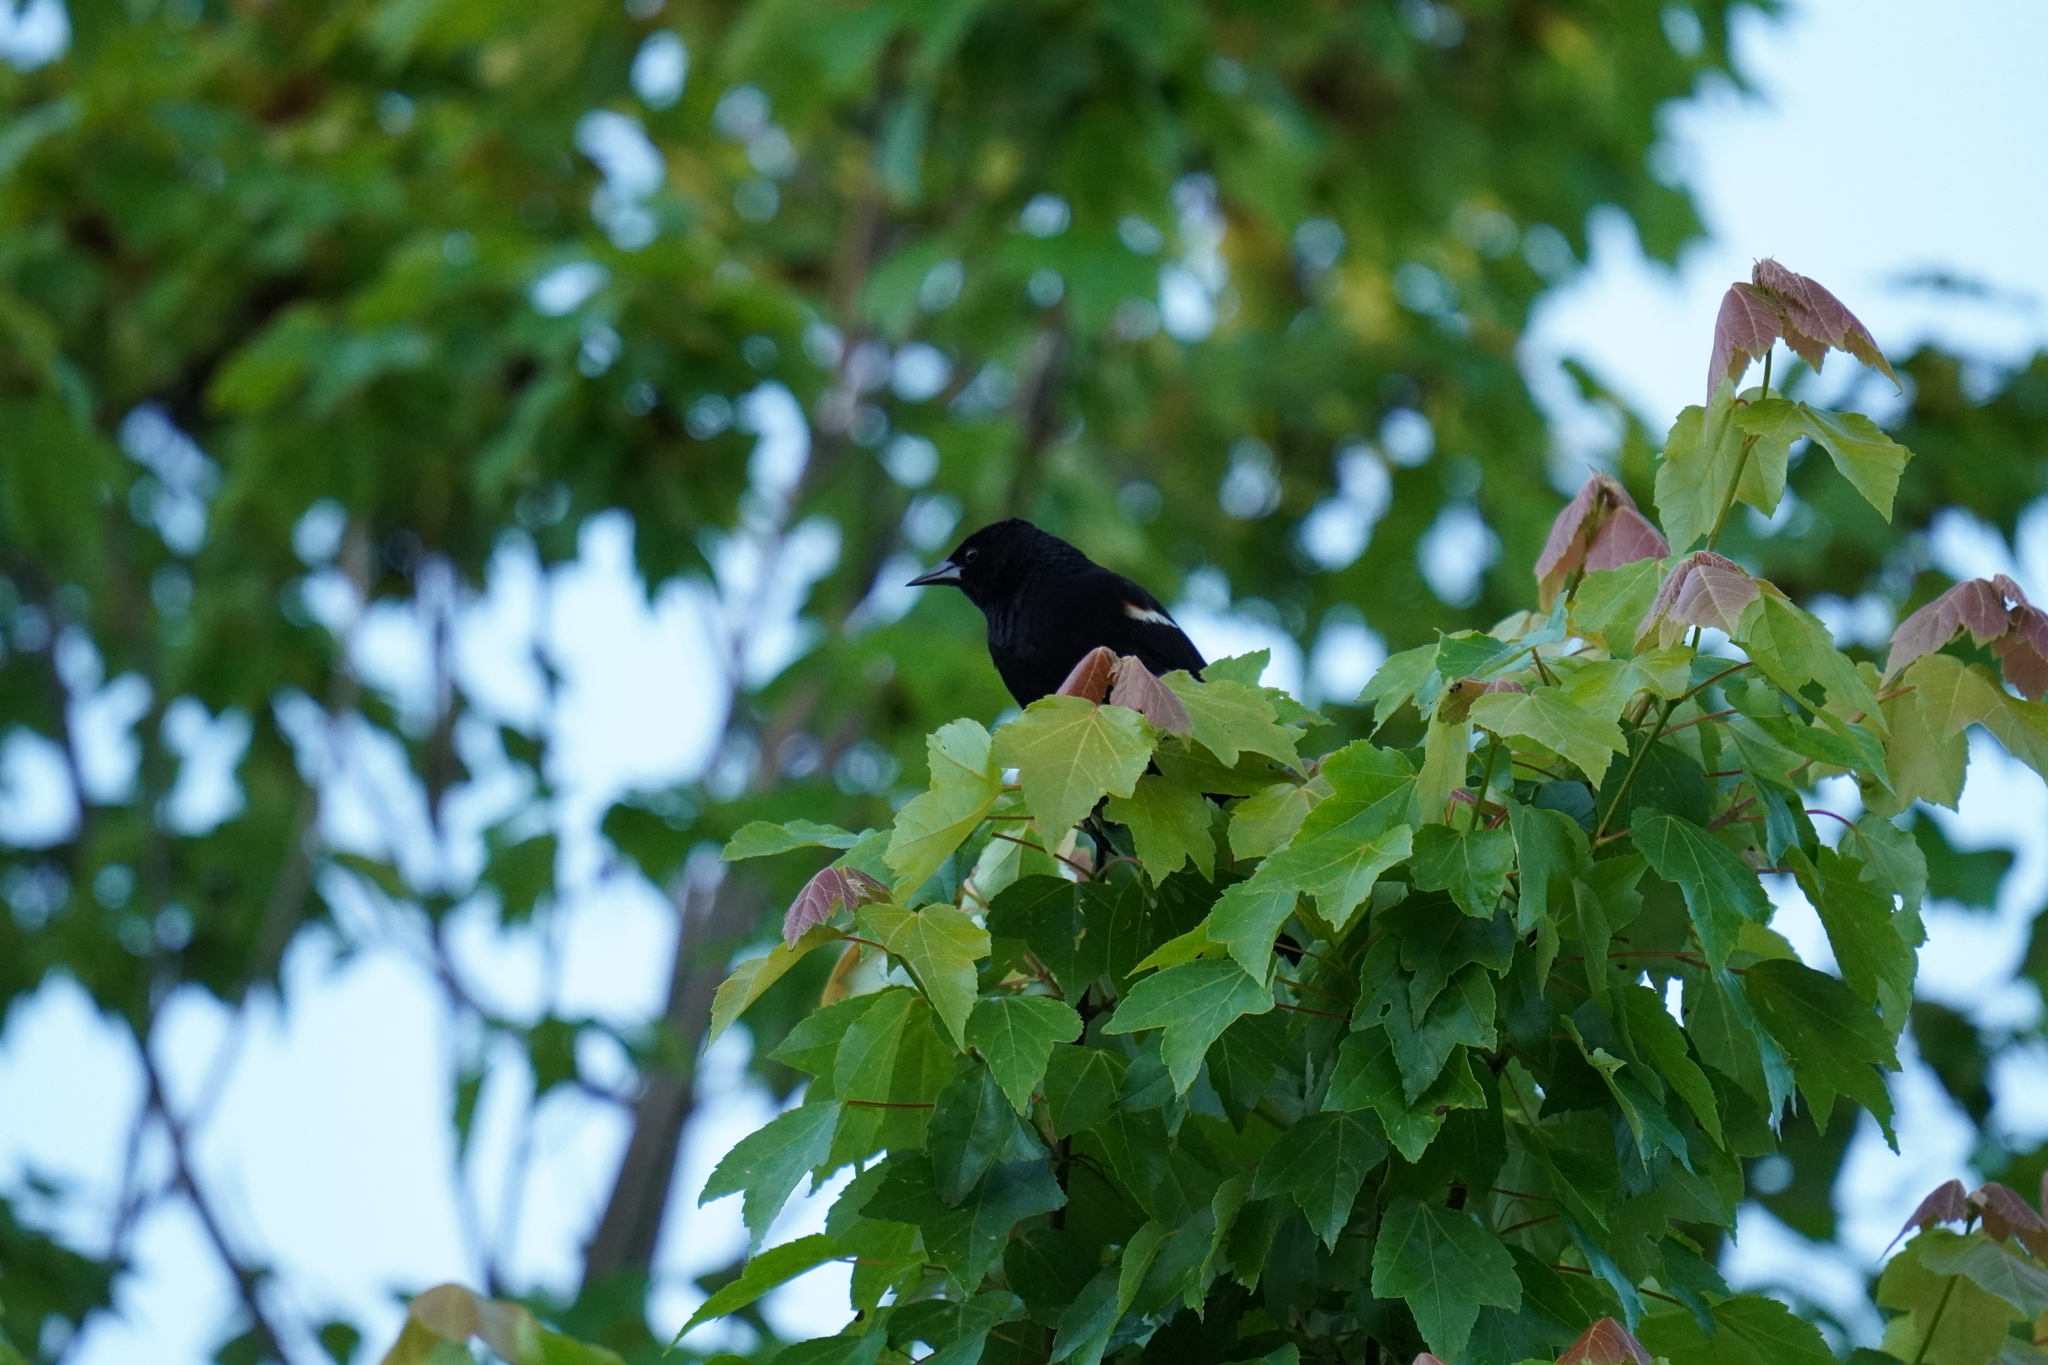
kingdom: Animalia
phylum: Chordata
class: Aves
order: Passeriformes
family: Icteridae
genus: Agelaius
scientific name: Agelaius phoeniceus
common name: Red-winged blackbird
